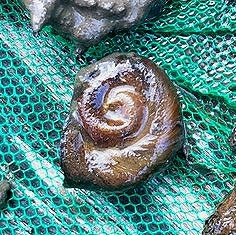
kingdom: Animalia
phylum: Mollusca
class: Gastropoda
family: Planorbidae
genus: Planorbella
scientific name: Planorbella trivolvis
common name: Marsh rams-horn
